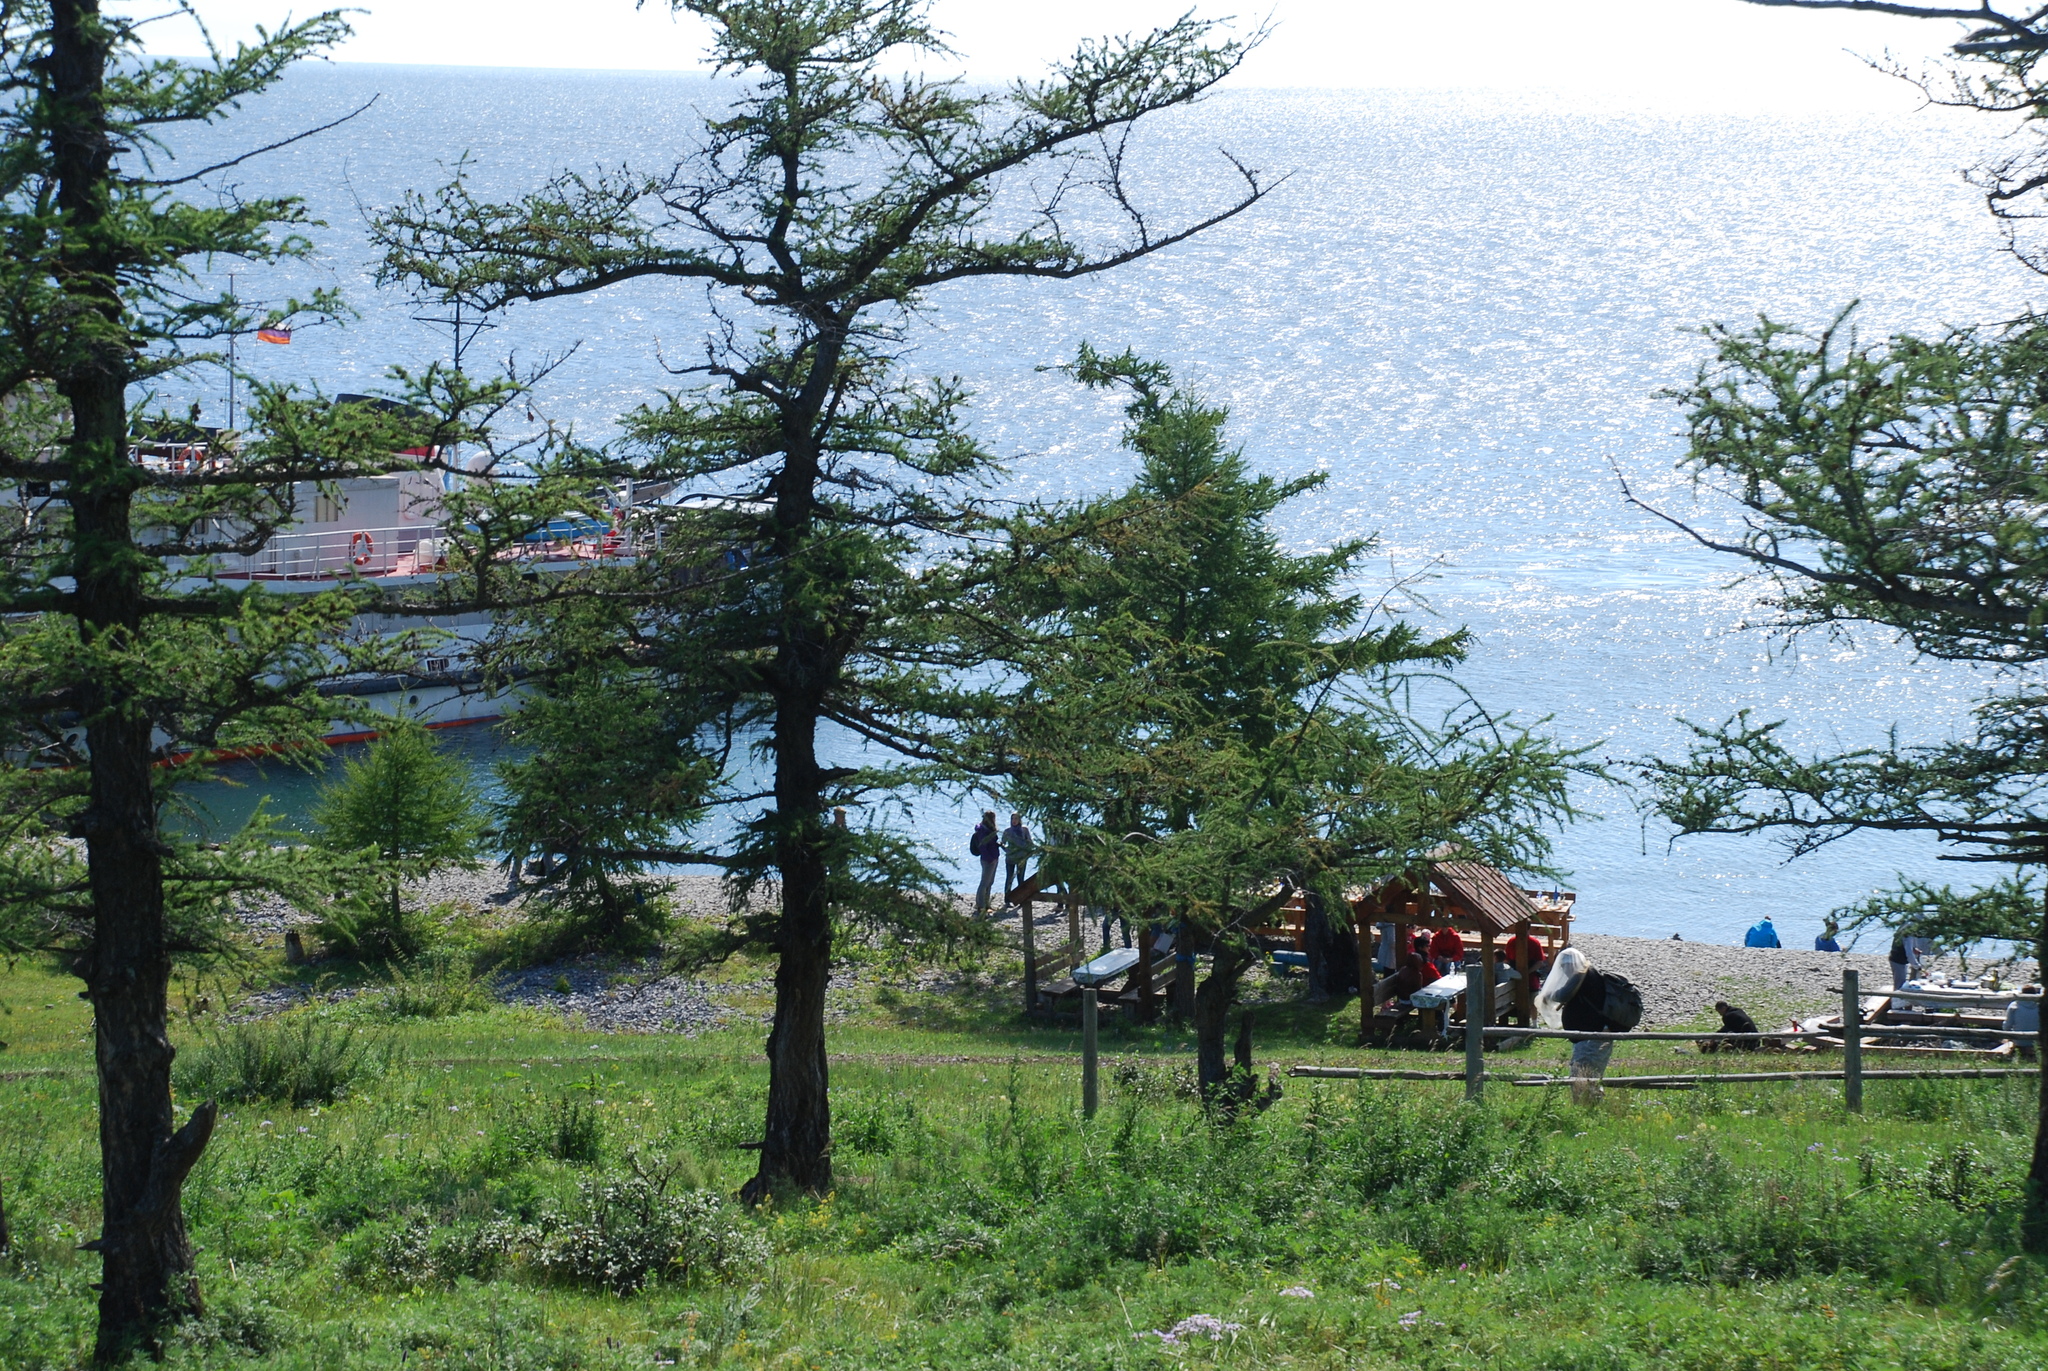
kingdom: Plantae
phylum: Tracheophyta
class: Pinopsida
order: Pinales
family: Pinaceae
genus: Larix
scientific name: Larix sibirica
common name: Siberian larch
